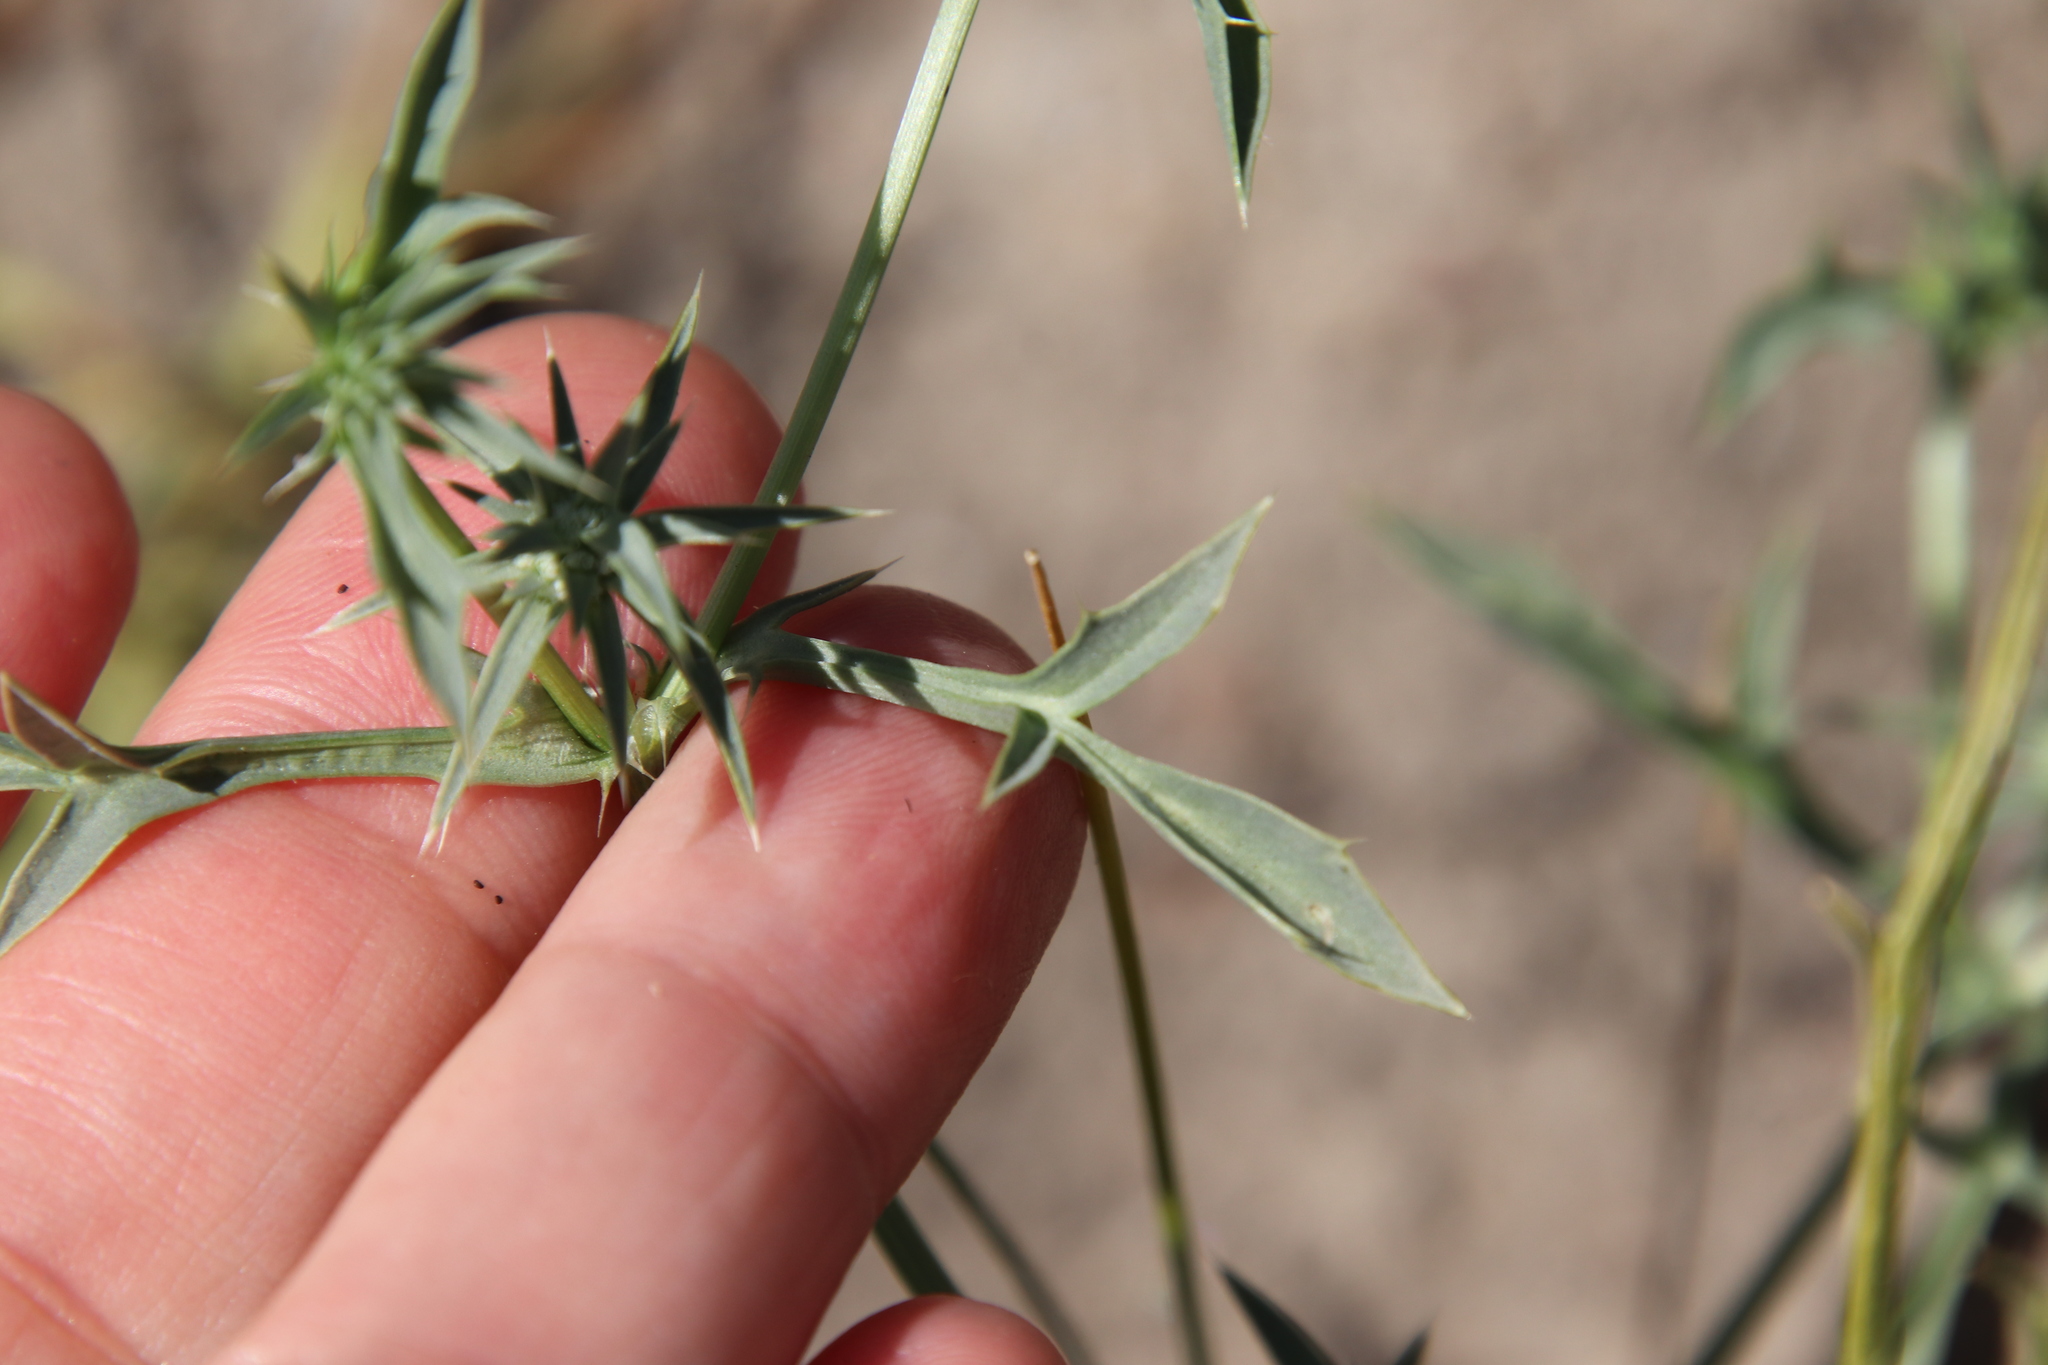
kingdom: Plantae
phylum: Tracheophyta
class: Magnoliopsida
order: Apiales
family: Apiaceae
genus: Eryngium
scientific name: Eryngium aristulatum
